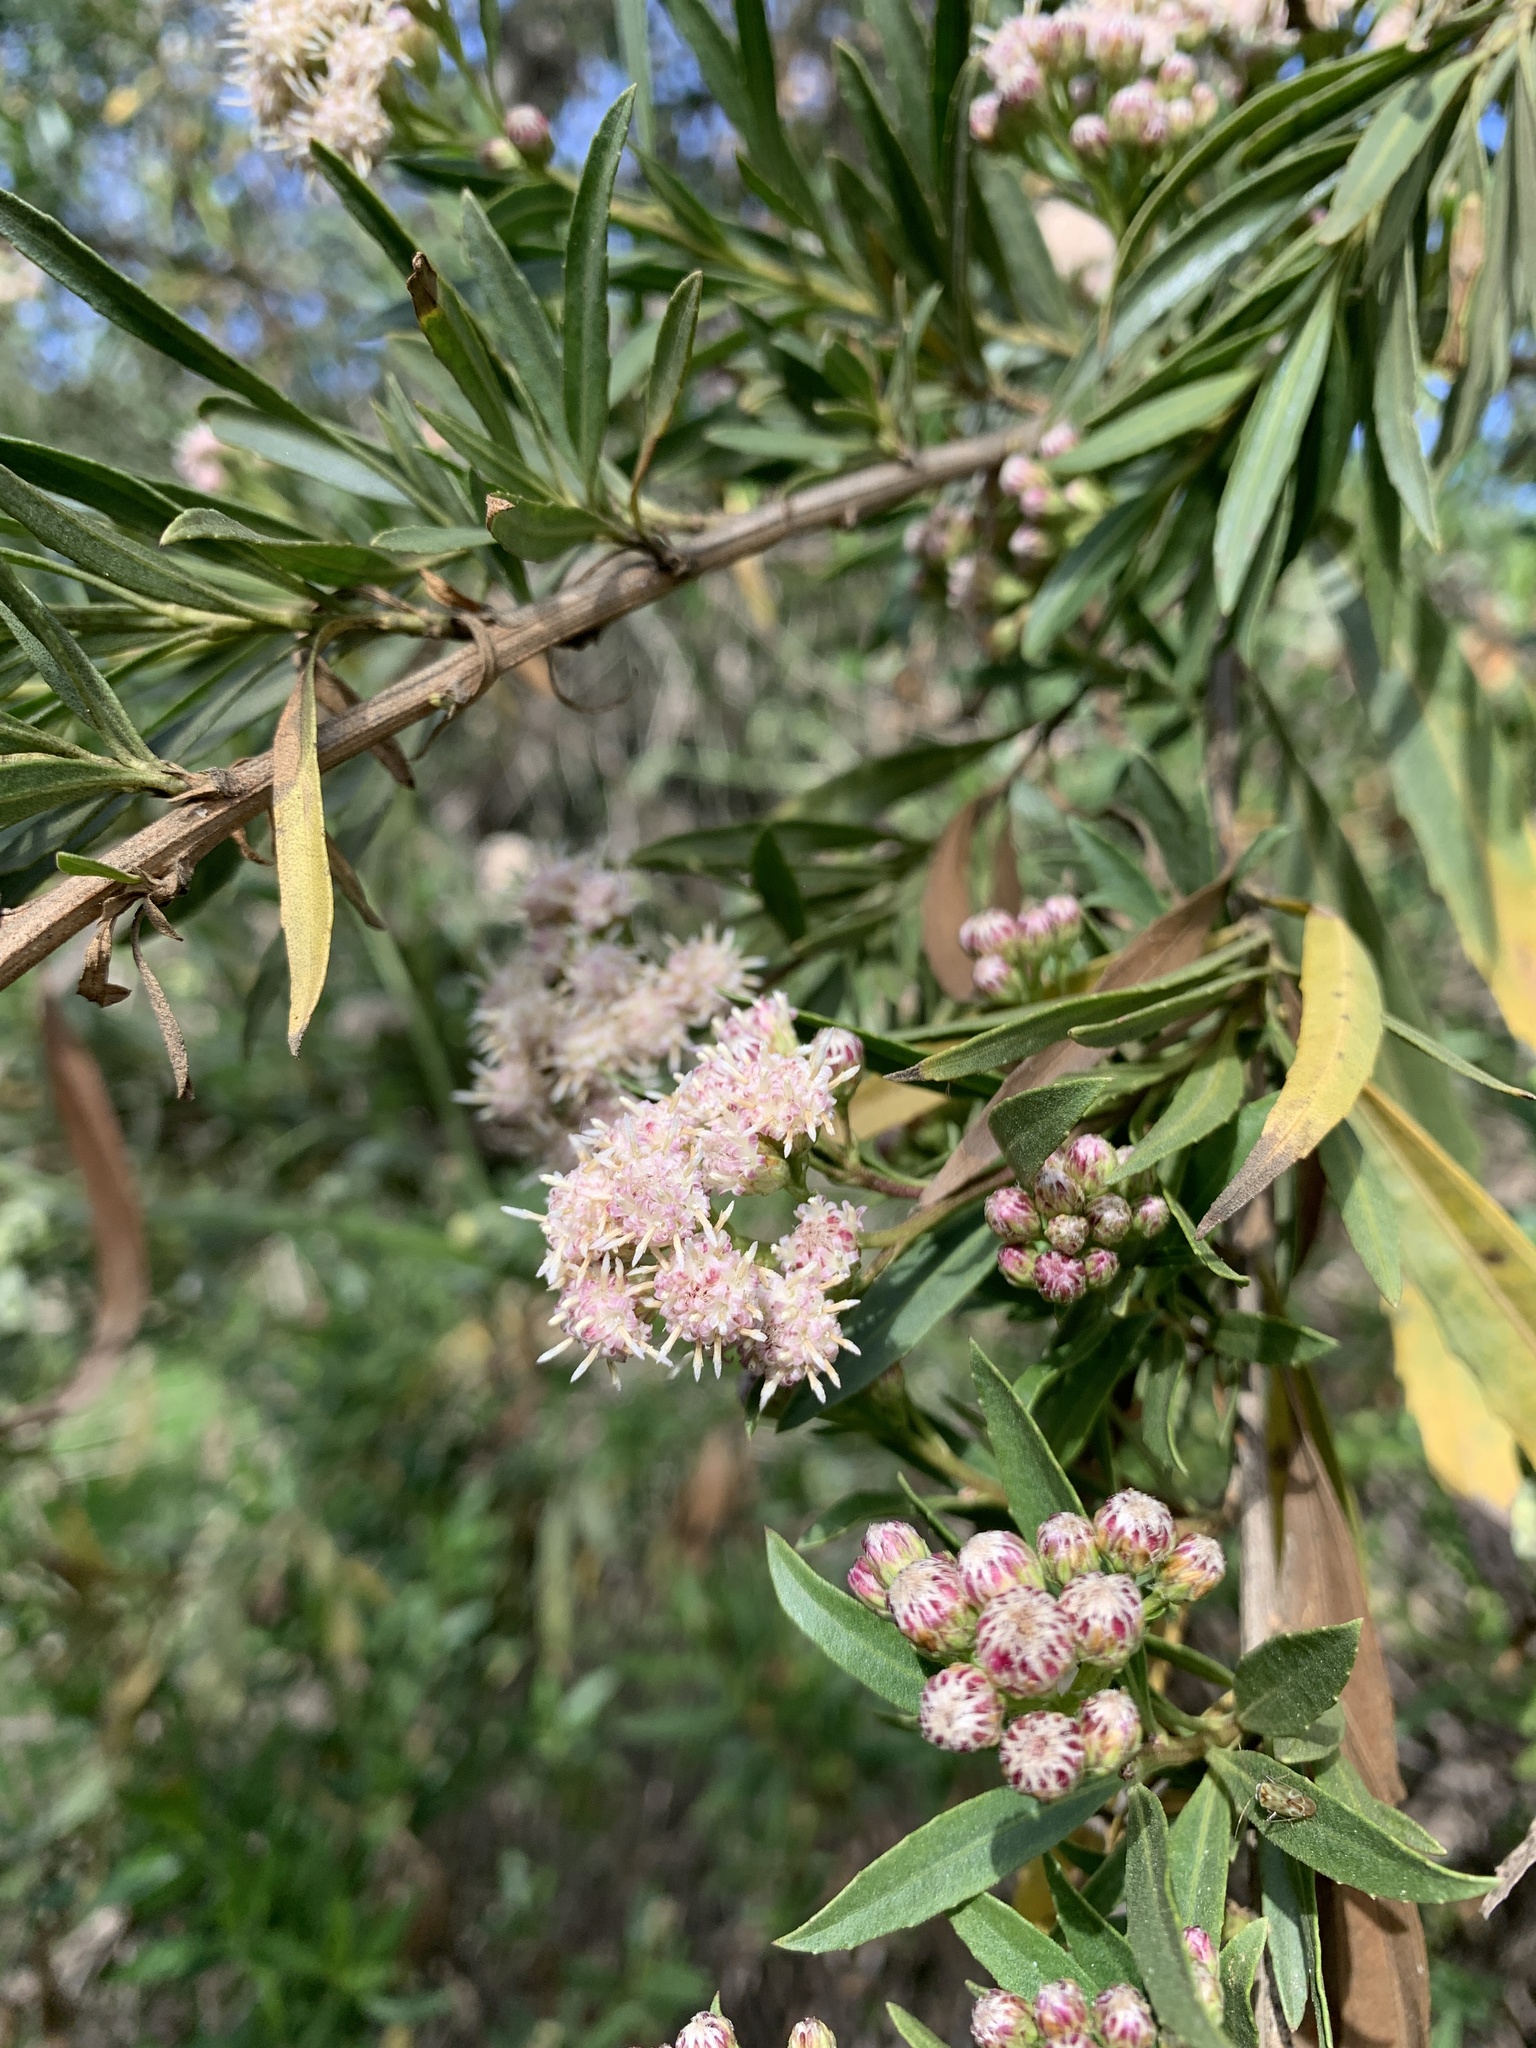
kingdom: Plantae
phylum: Tracheophyta
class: Magnoliopsida
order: Asterales
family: Asteraceae
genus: Baccharis
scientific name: Baccharis salicifolia
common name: Sticky baccharis
